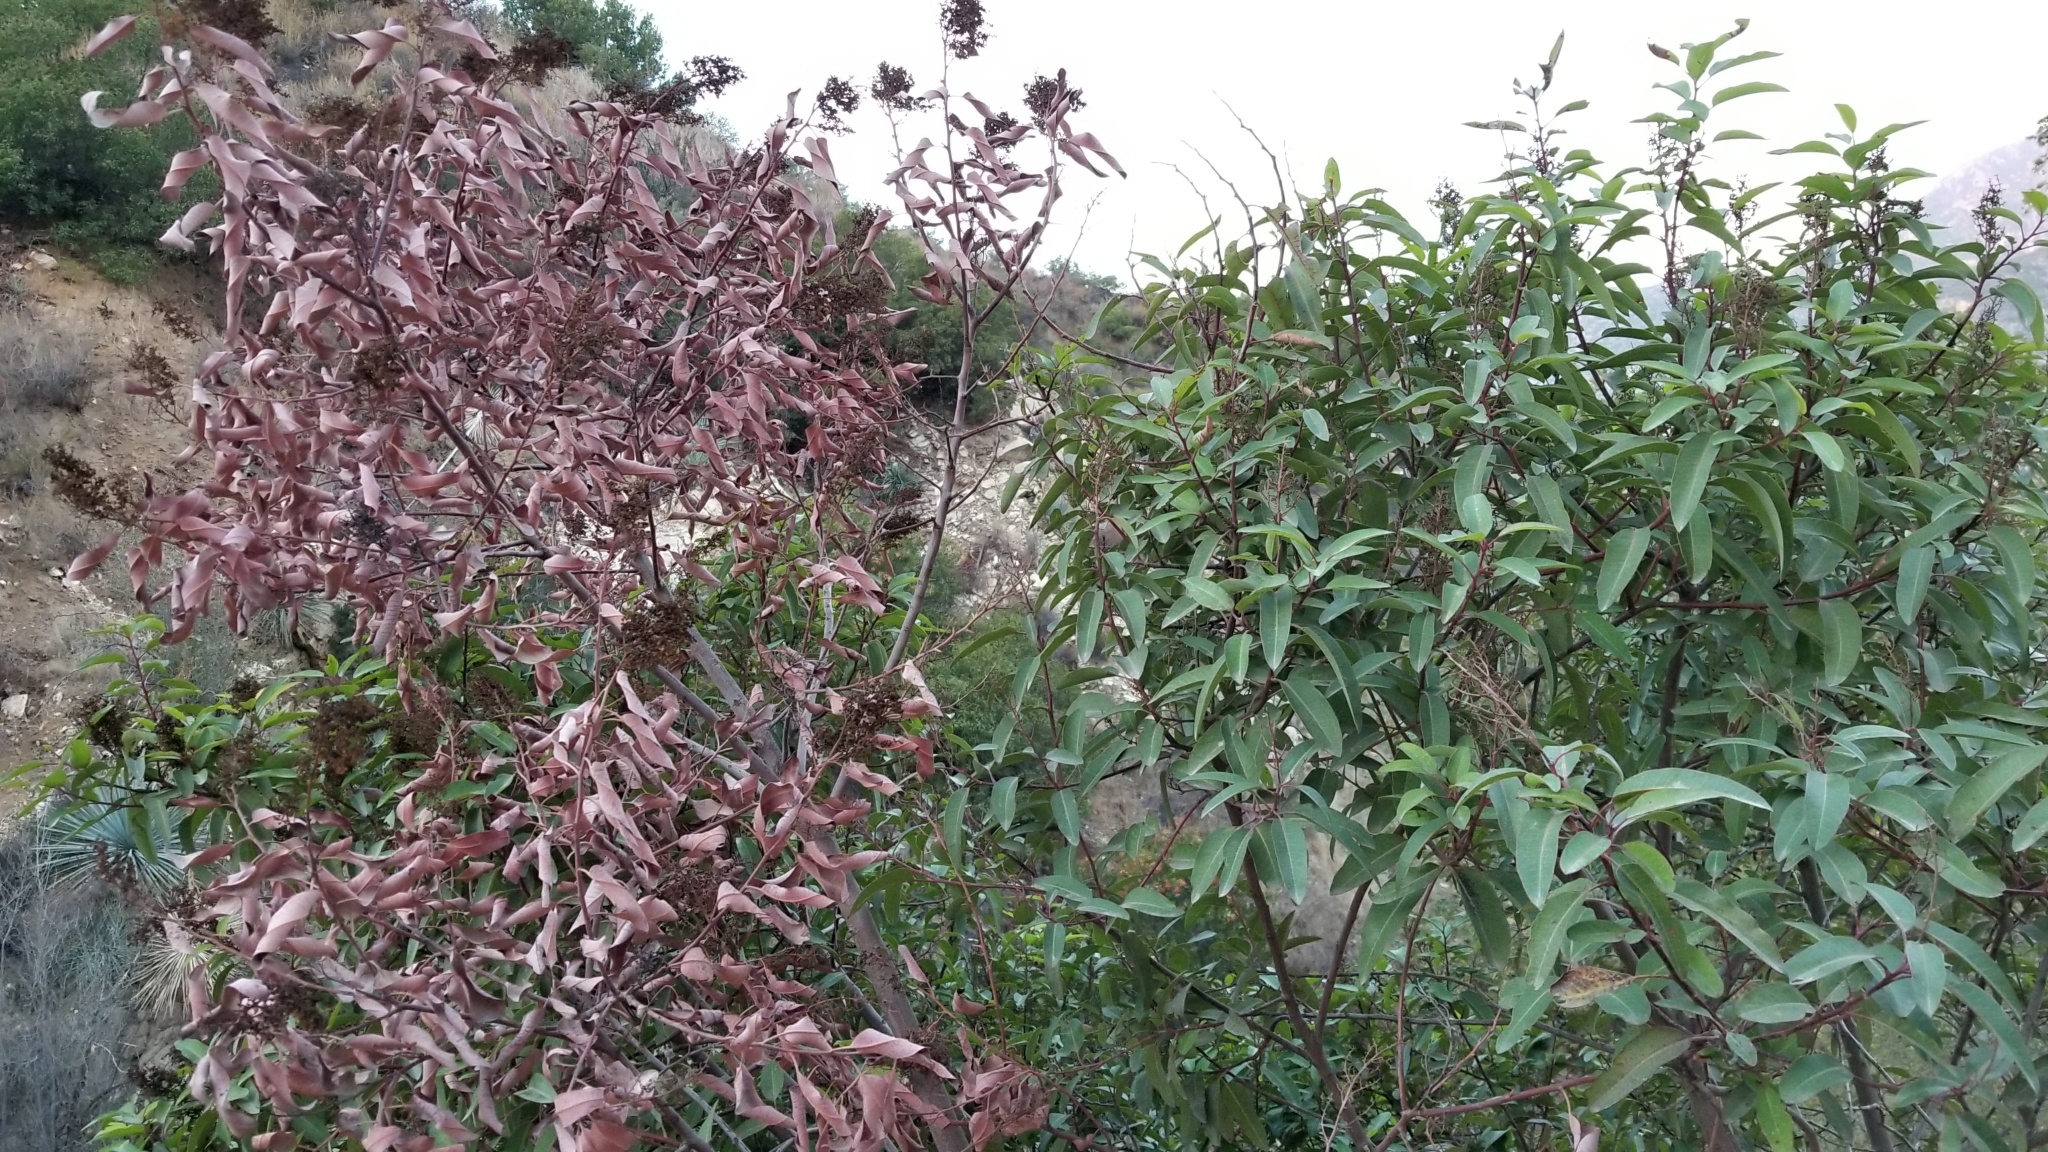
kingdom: Plantae
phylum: Tracheophyta
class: Magnoliopsida
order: Sapindales
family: Anacardiaceae
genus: Malosma
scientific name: Malosma laurina
